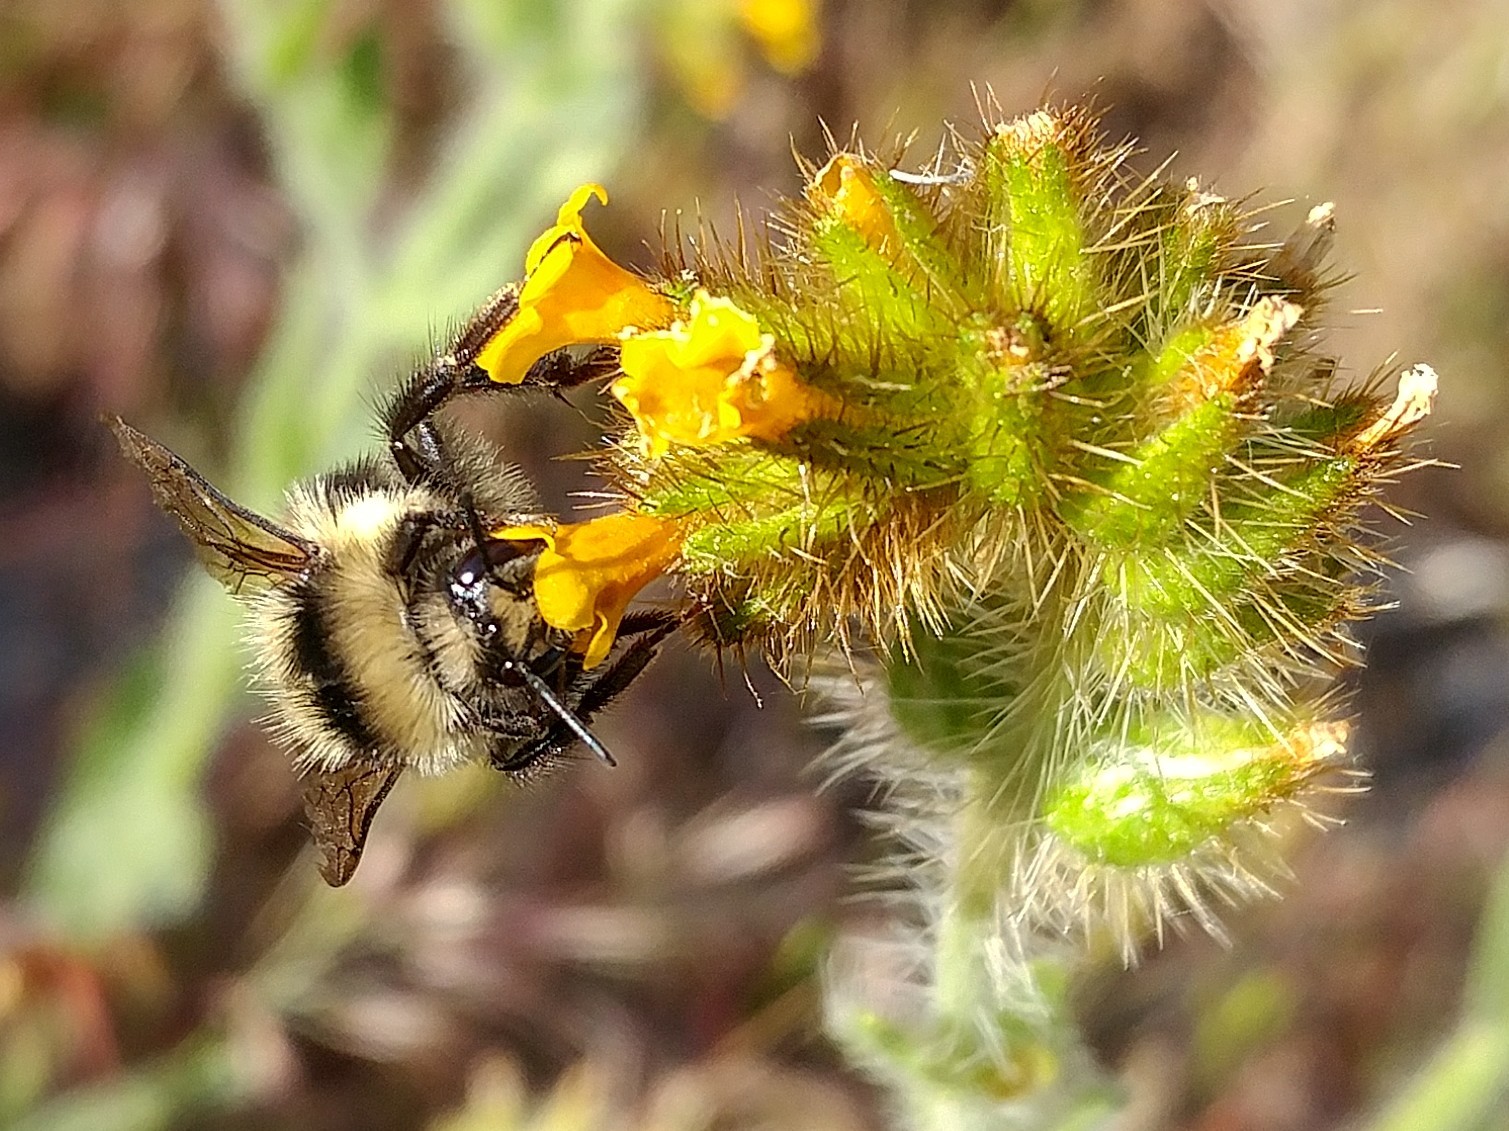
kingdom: Animalia
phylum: Arthropoda
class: Insecta
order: Hymenoptera
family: Apidae
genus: Bombus
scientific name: Bombus melanopygus
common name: Black tail bumble bee
